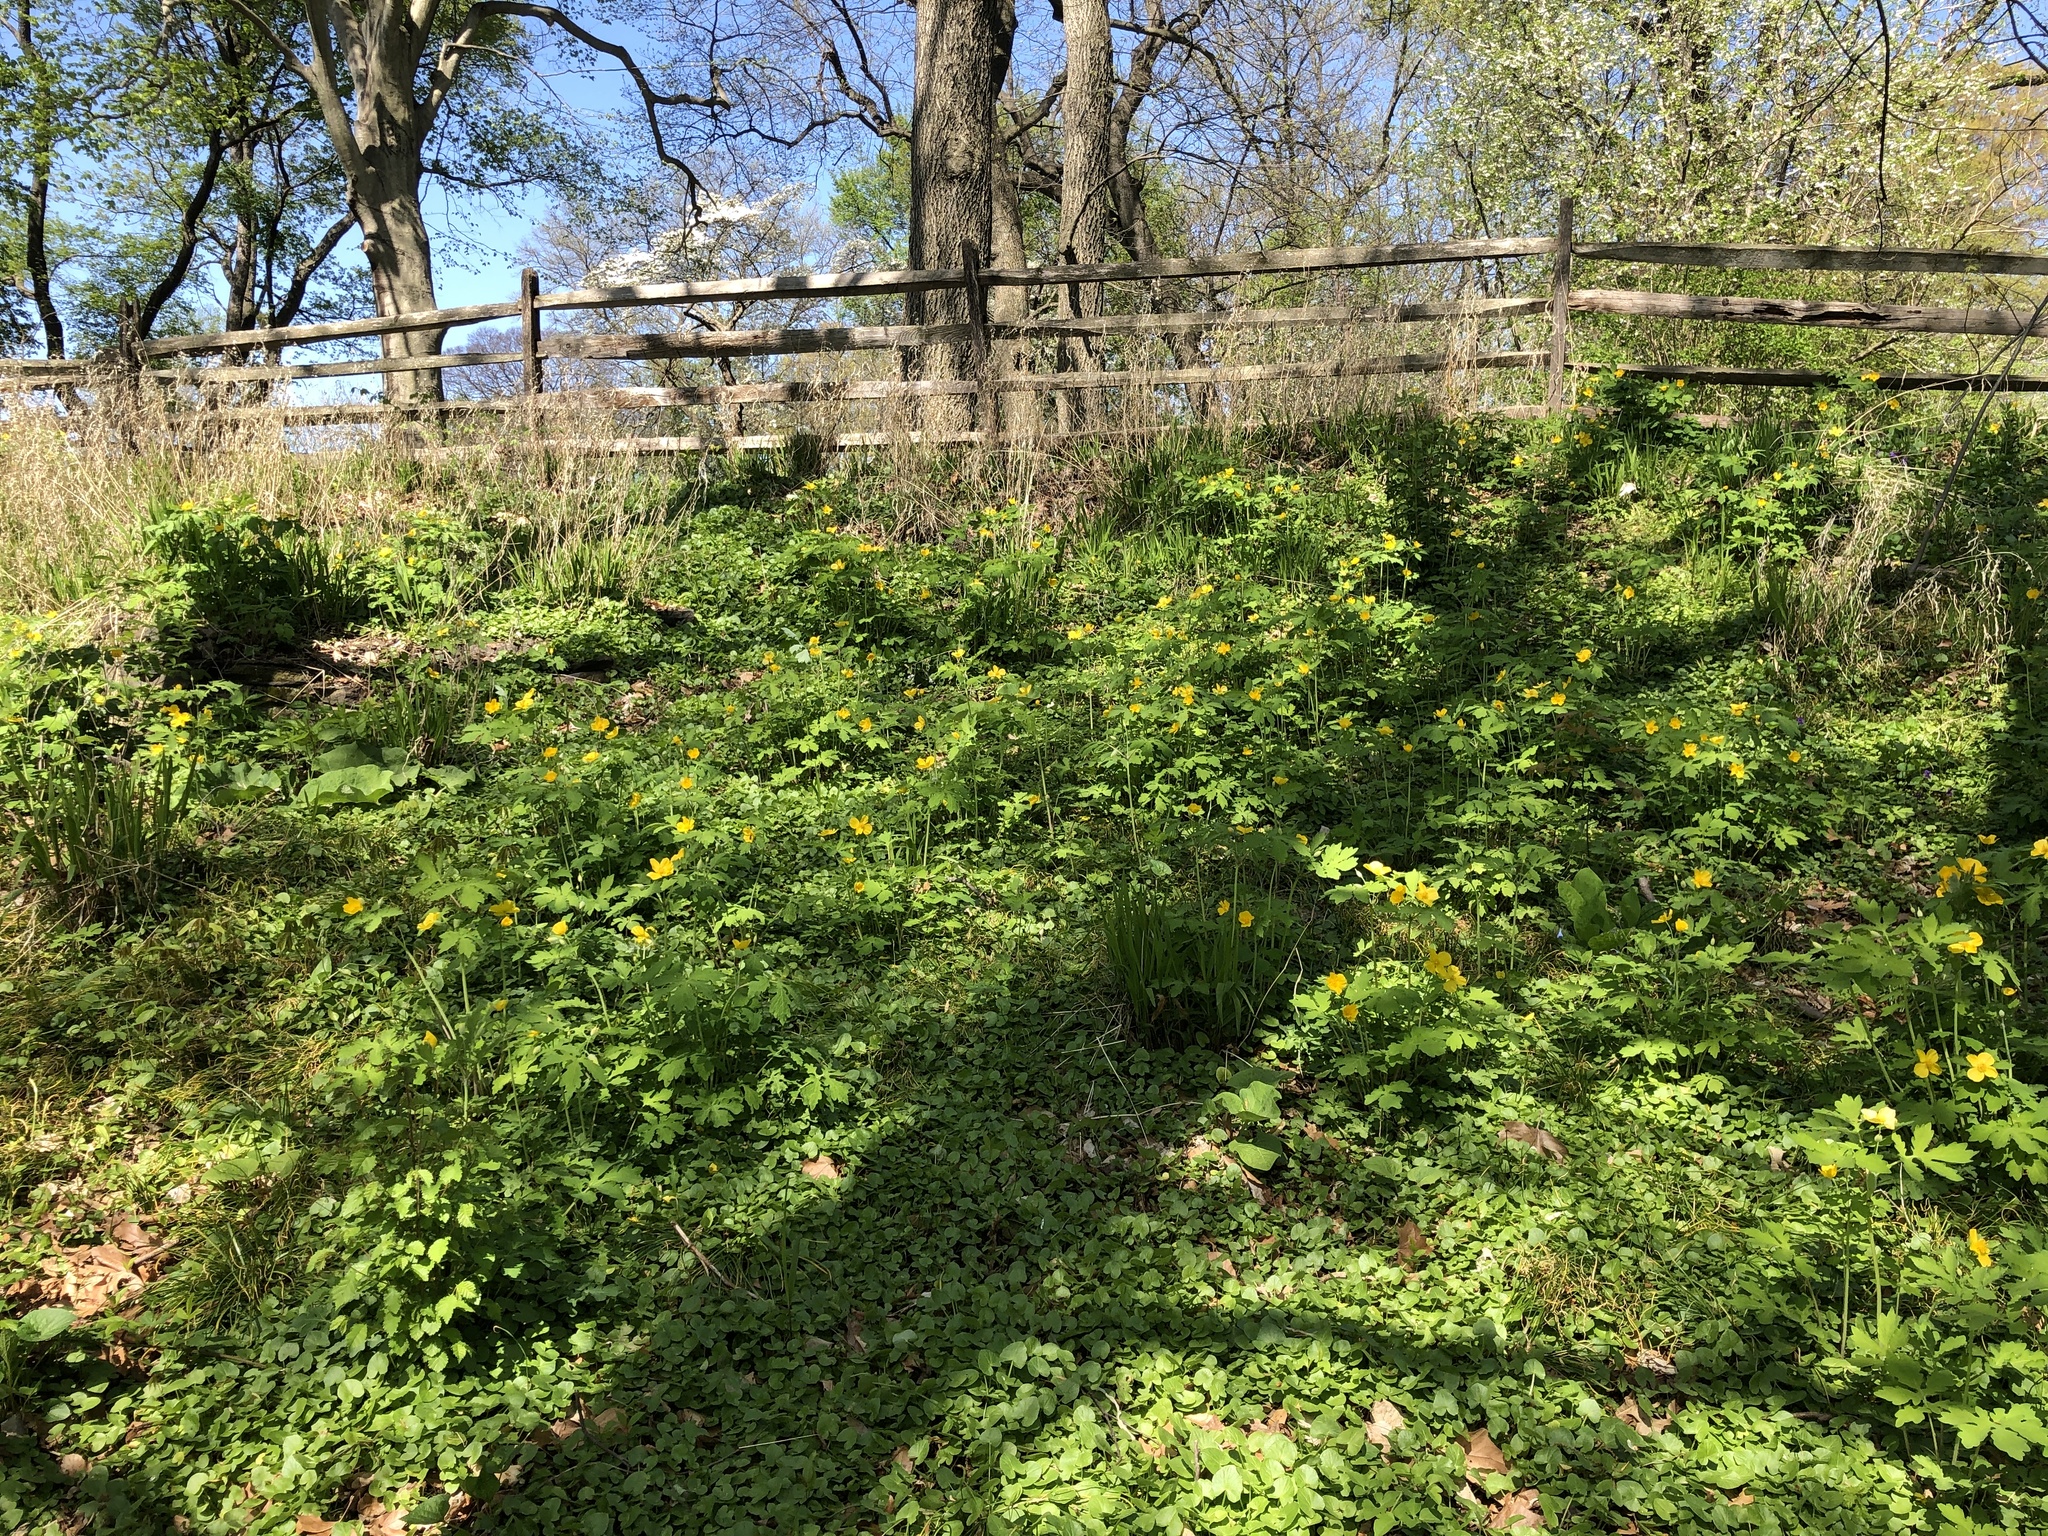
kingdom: Plantae
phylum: Tracheophyta
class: Magnoliopsida
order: Ranunculales
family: Papaveraceae
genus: Stylophorum
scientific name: Stylophorum diphyllum
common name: Celandine poppy
